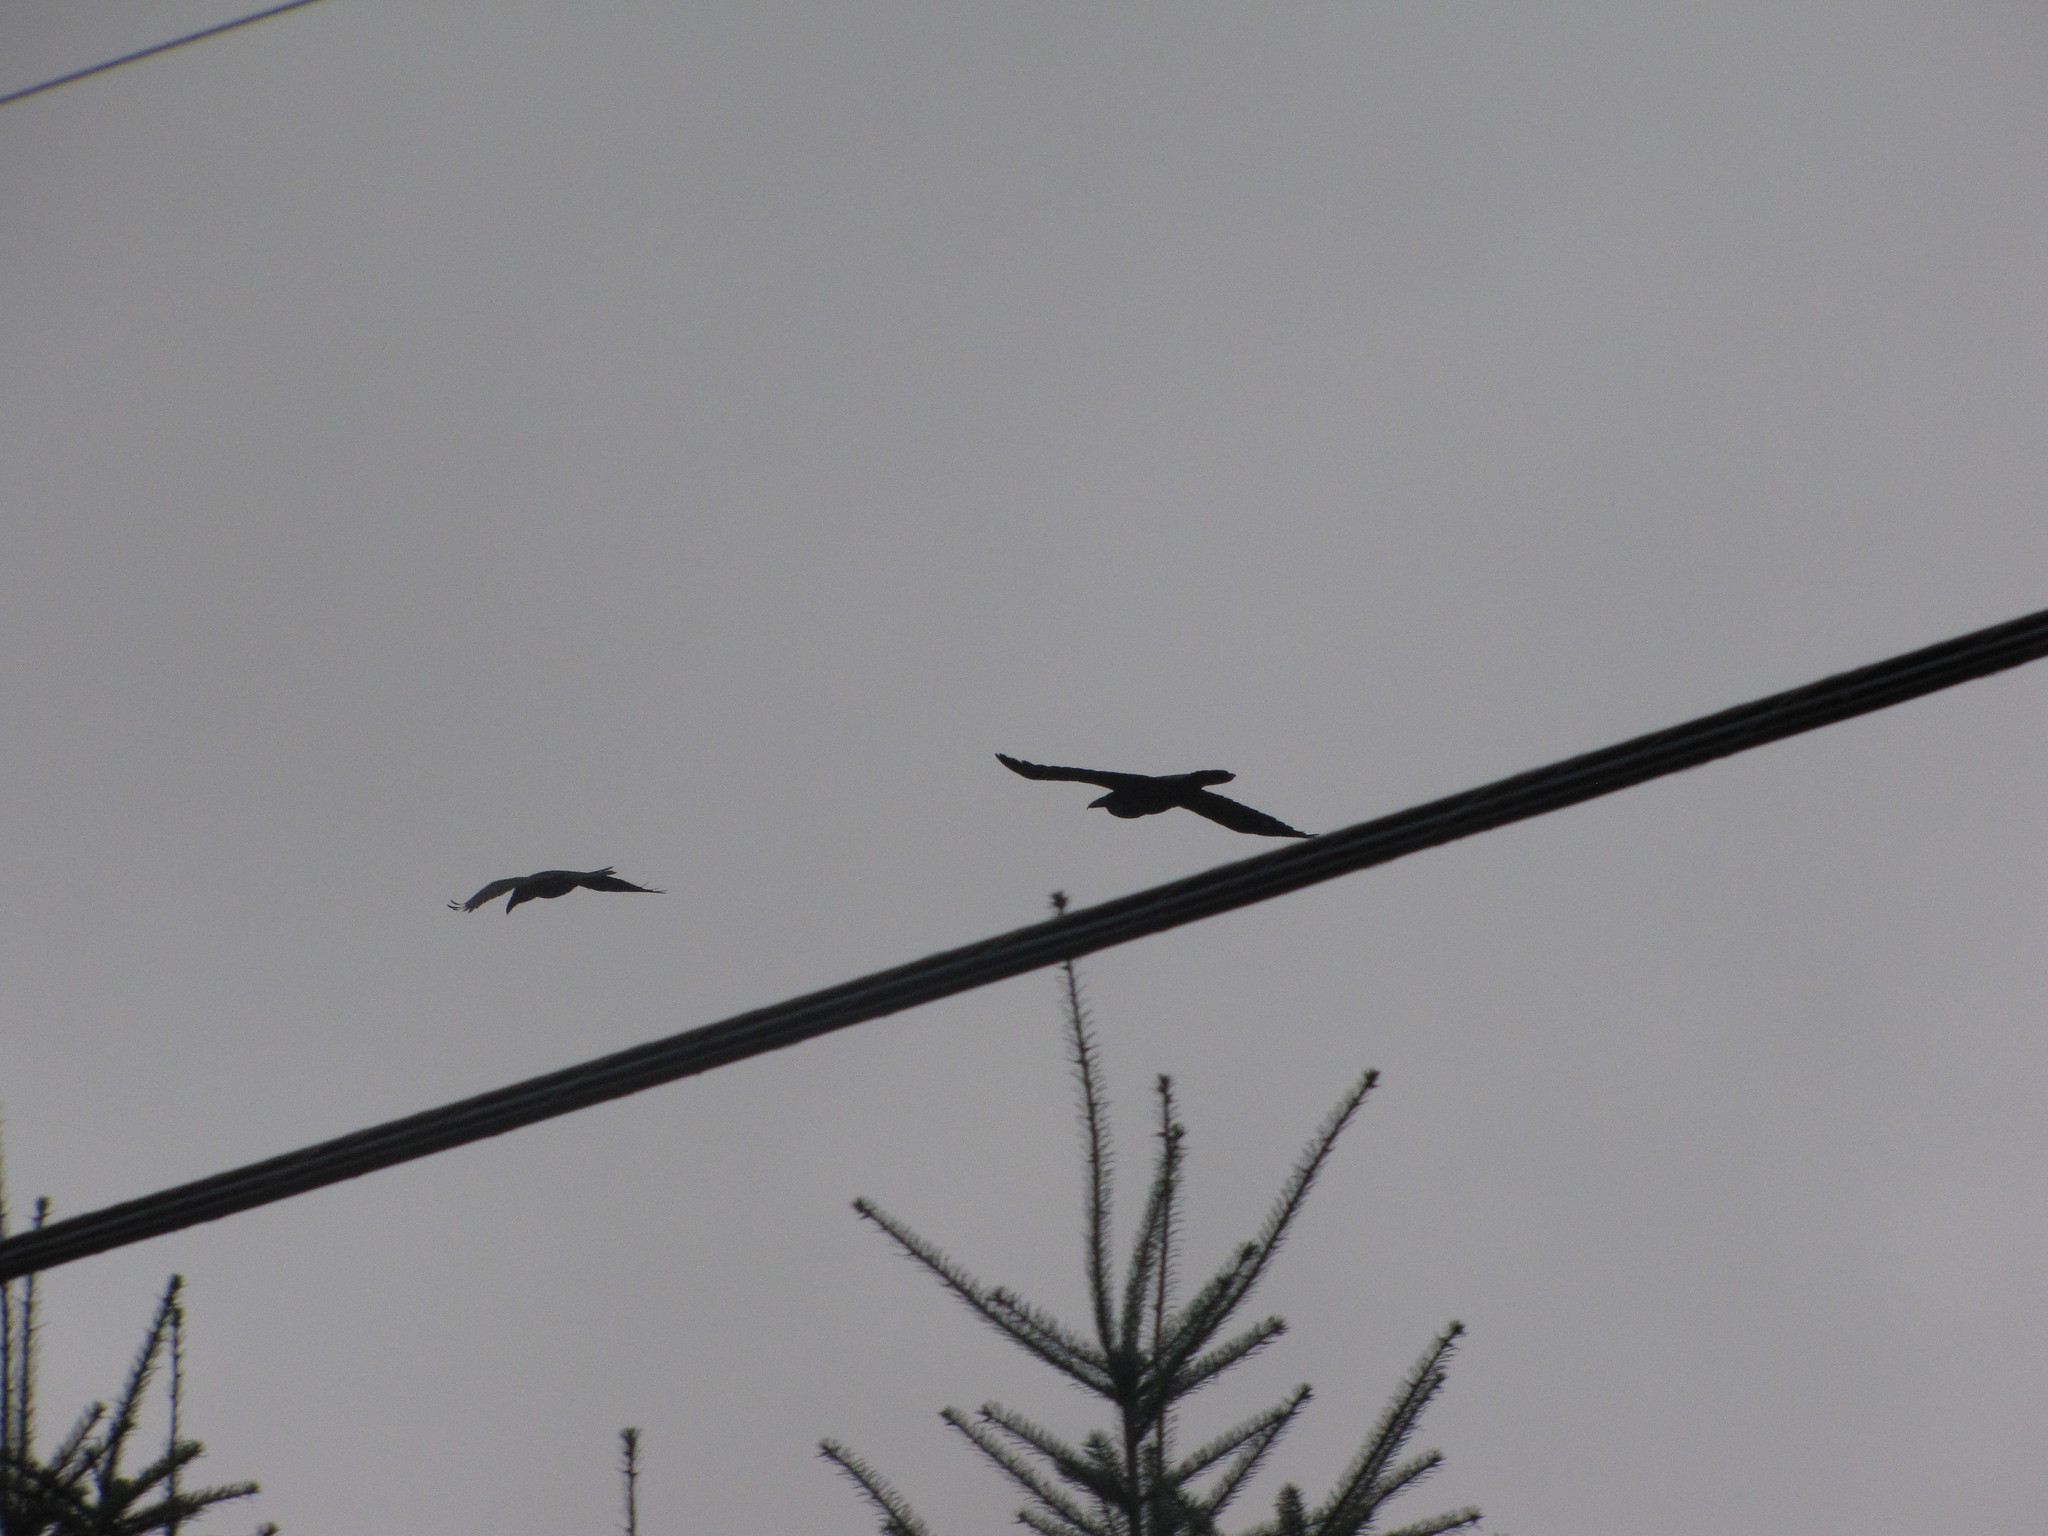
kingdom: Animalia
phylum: Chordata
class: Aves
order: Passeriformes
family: Corvidae
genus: Corvus
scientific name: Corvus corax
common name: Common raven
